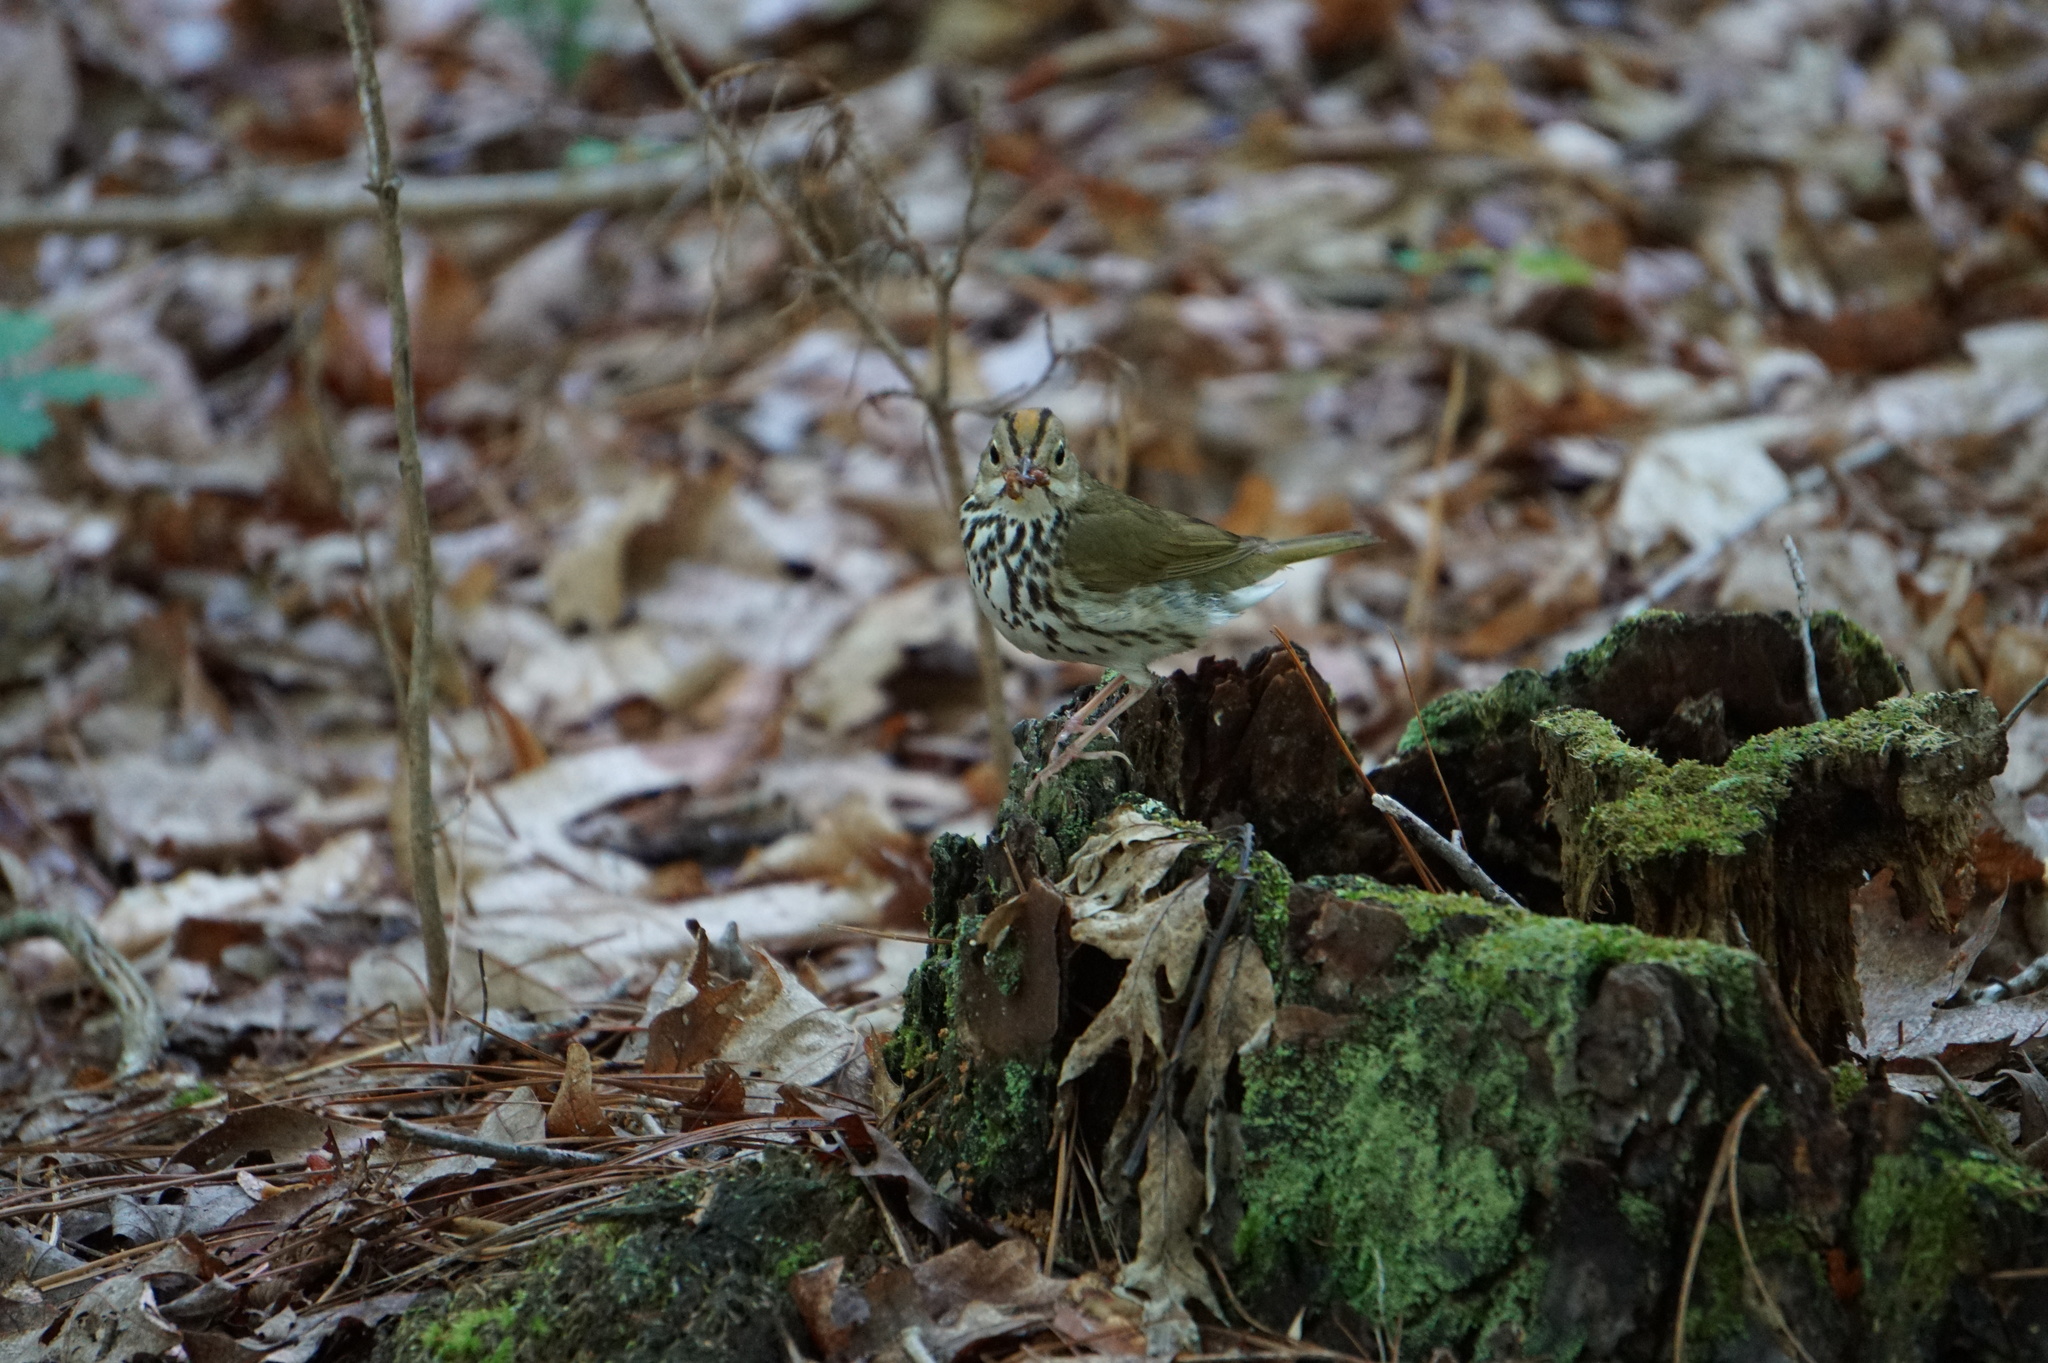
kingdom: Animalia
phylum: Chordata
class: Aves
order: Passeriformes
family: Parulidae
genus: Seiurus
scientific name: Seiurus aurocapilla
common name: Ovenbird
